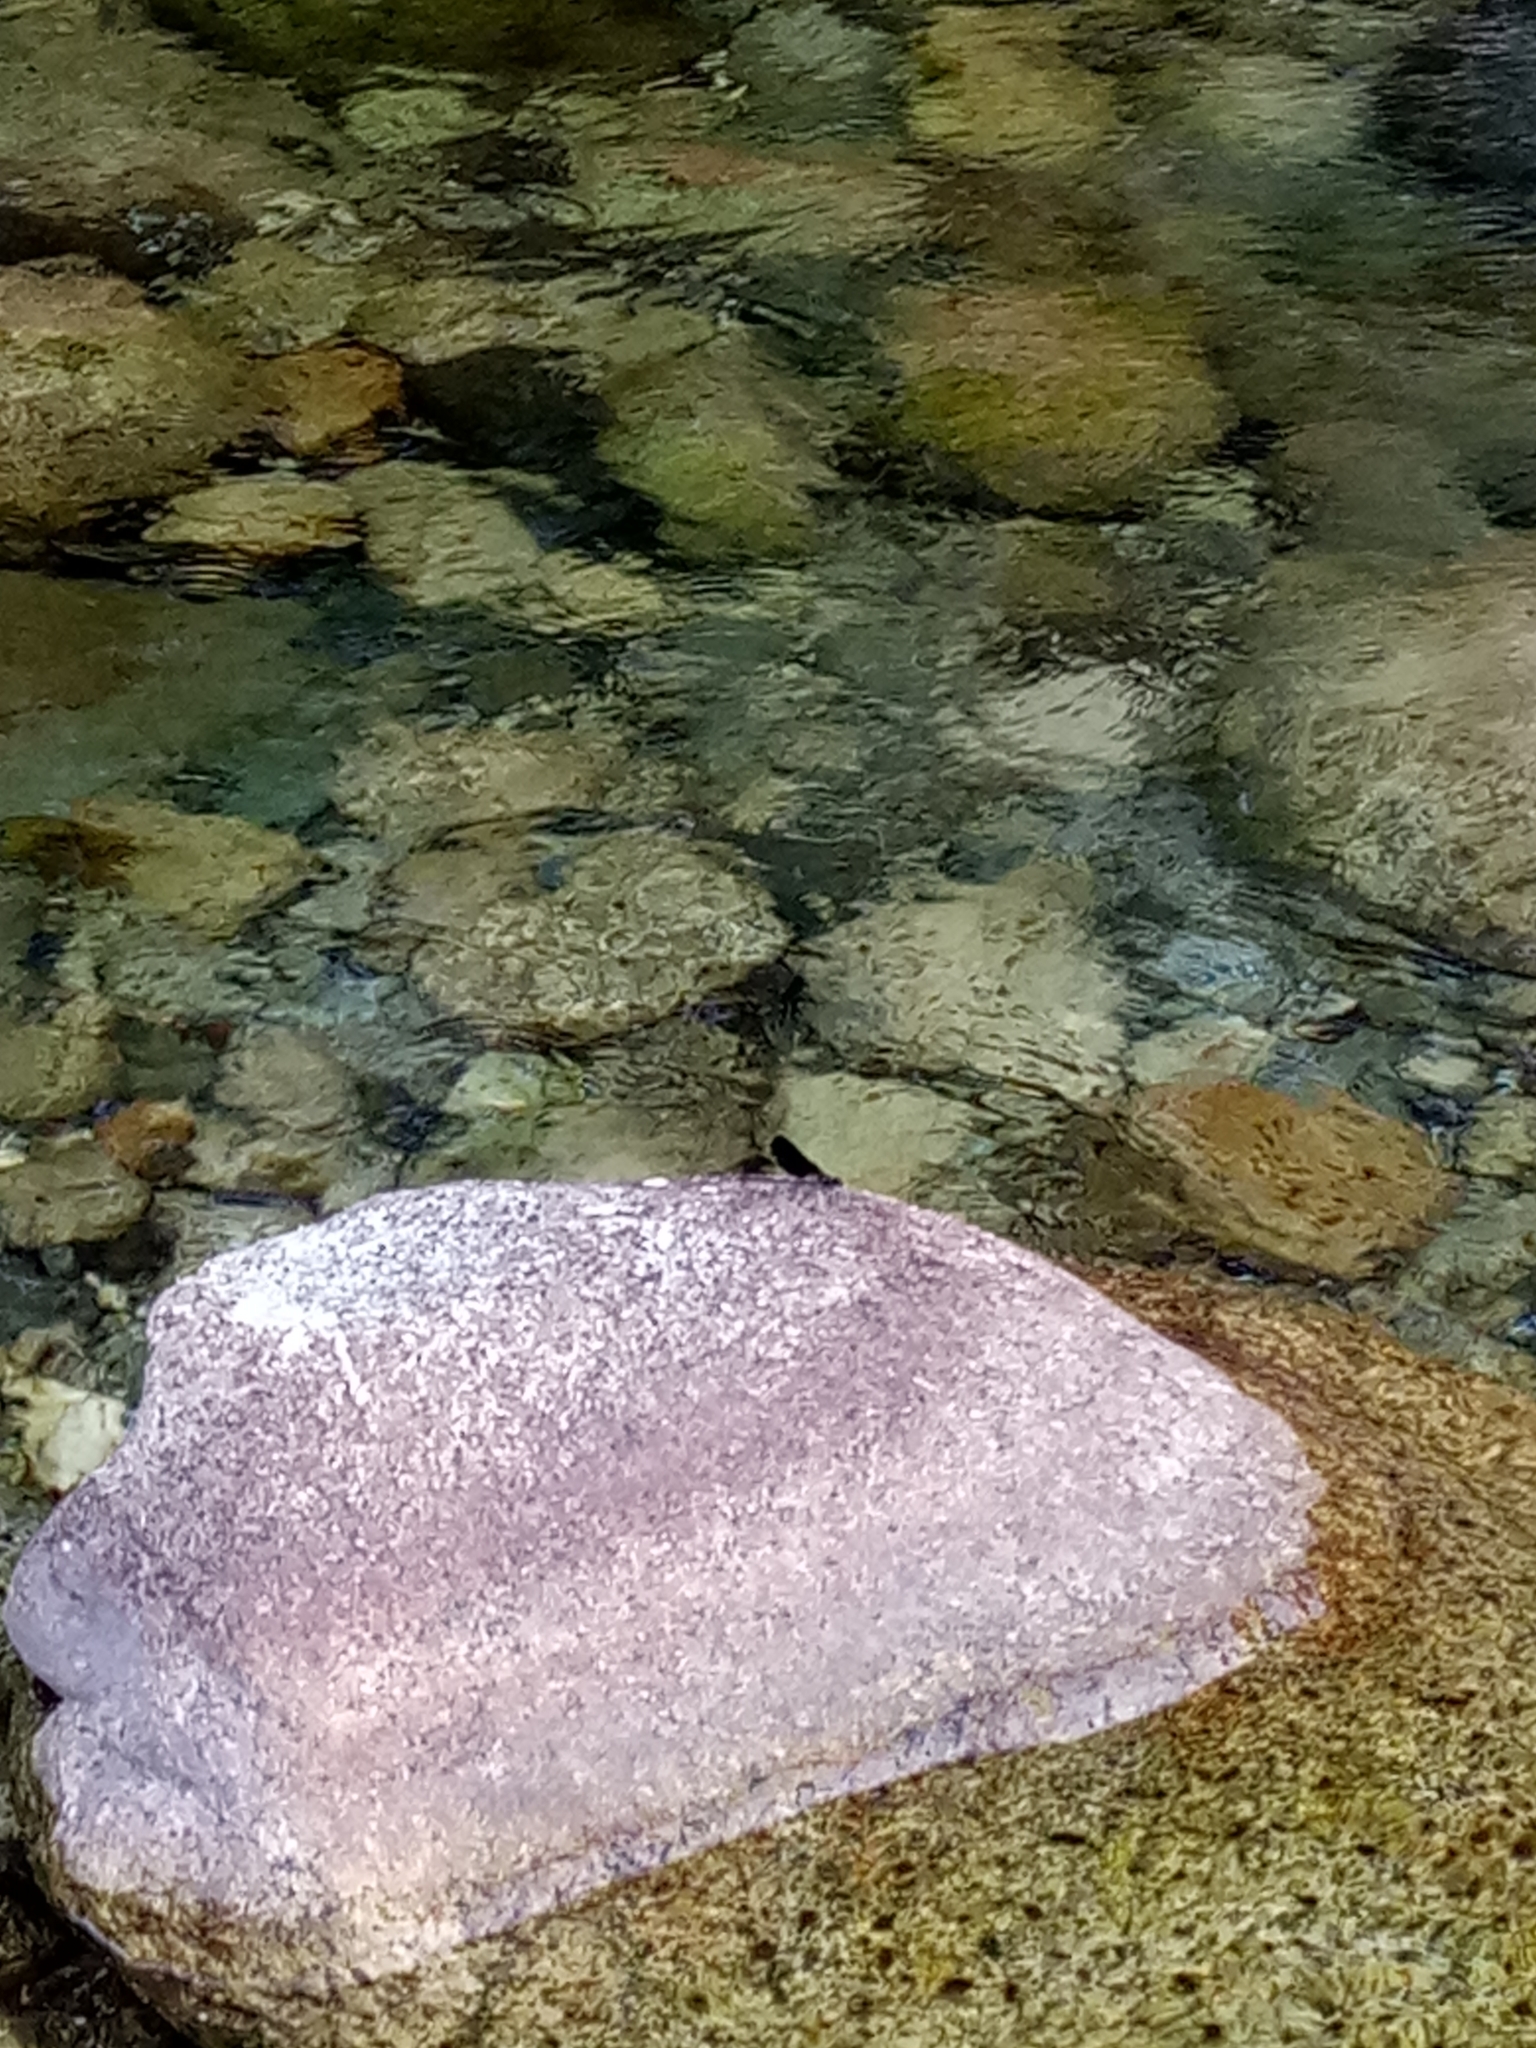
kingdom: Animalia
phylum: Arthropoda
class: Insecta
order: Odonata
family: Calopterygidae
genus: Calopteryx
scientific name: Calopteryx haemorrhoidalis
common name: Copper demoiselle
